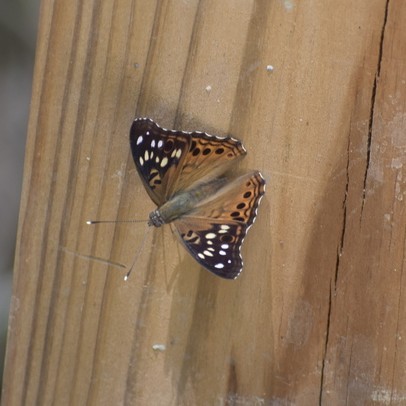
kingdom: Animalia
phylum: Arthropoda
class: Insecta
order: Lepidoptera
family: Nymphalidae
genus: Asterocampa
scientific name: Asterocampa celtis
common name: Hackberry emperor
